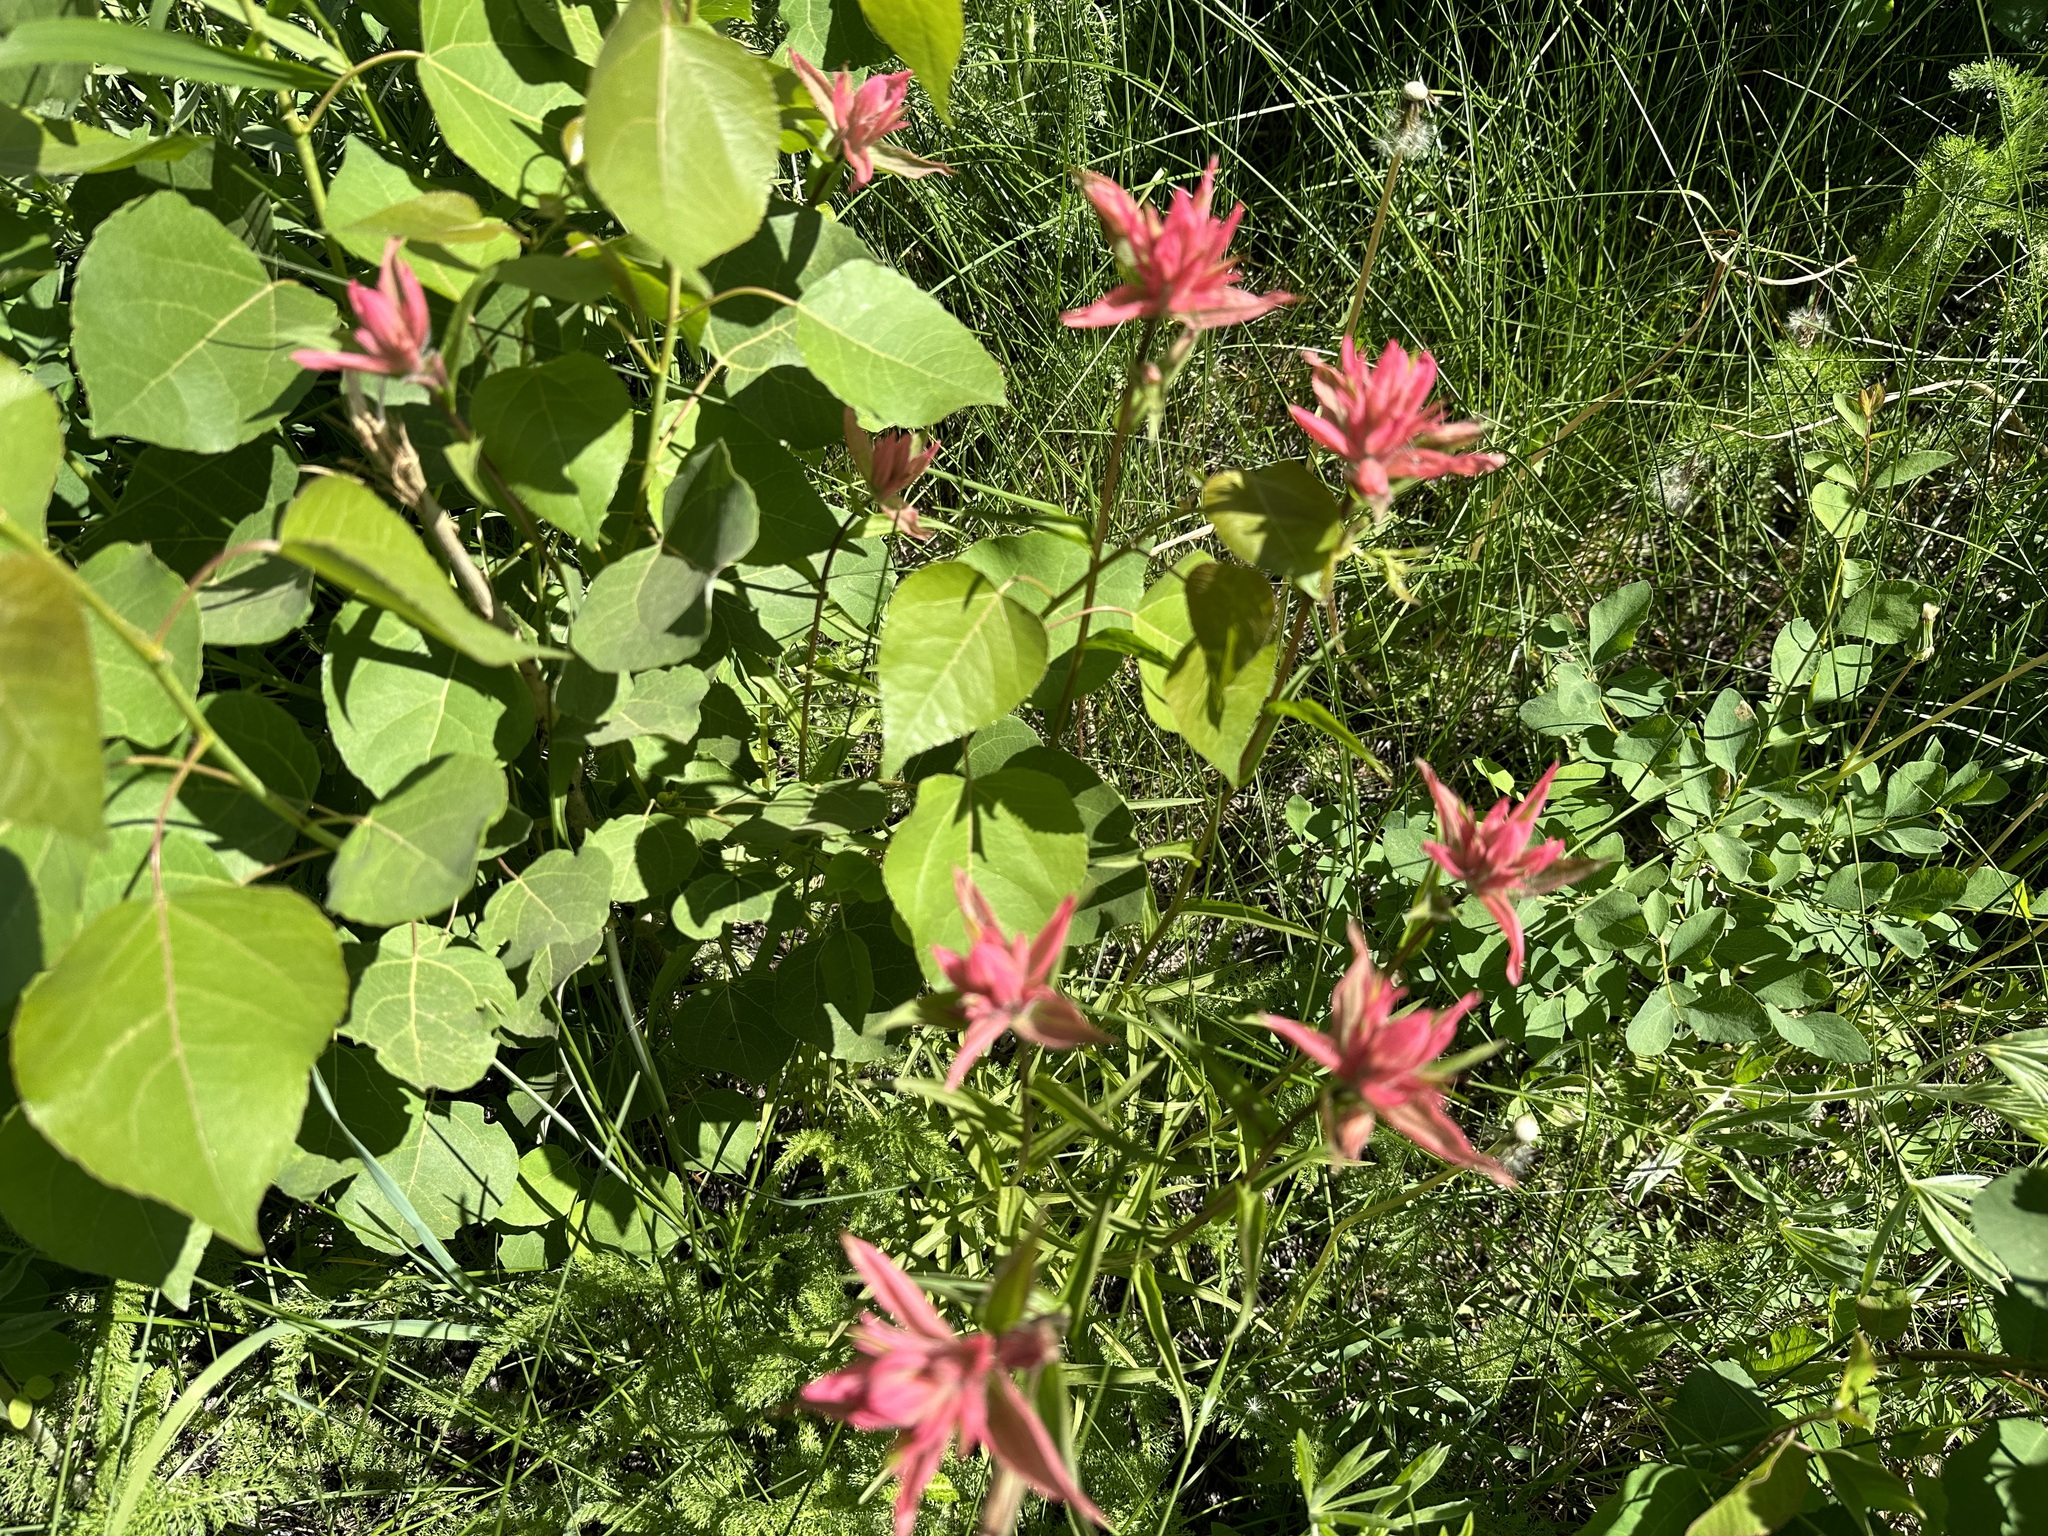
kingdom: Plantae
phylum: Tracheophyta
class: Magnoliopsida
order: Lamiales
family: Orobanchaceae
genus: Castilleja
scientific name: Castilleja miniata
